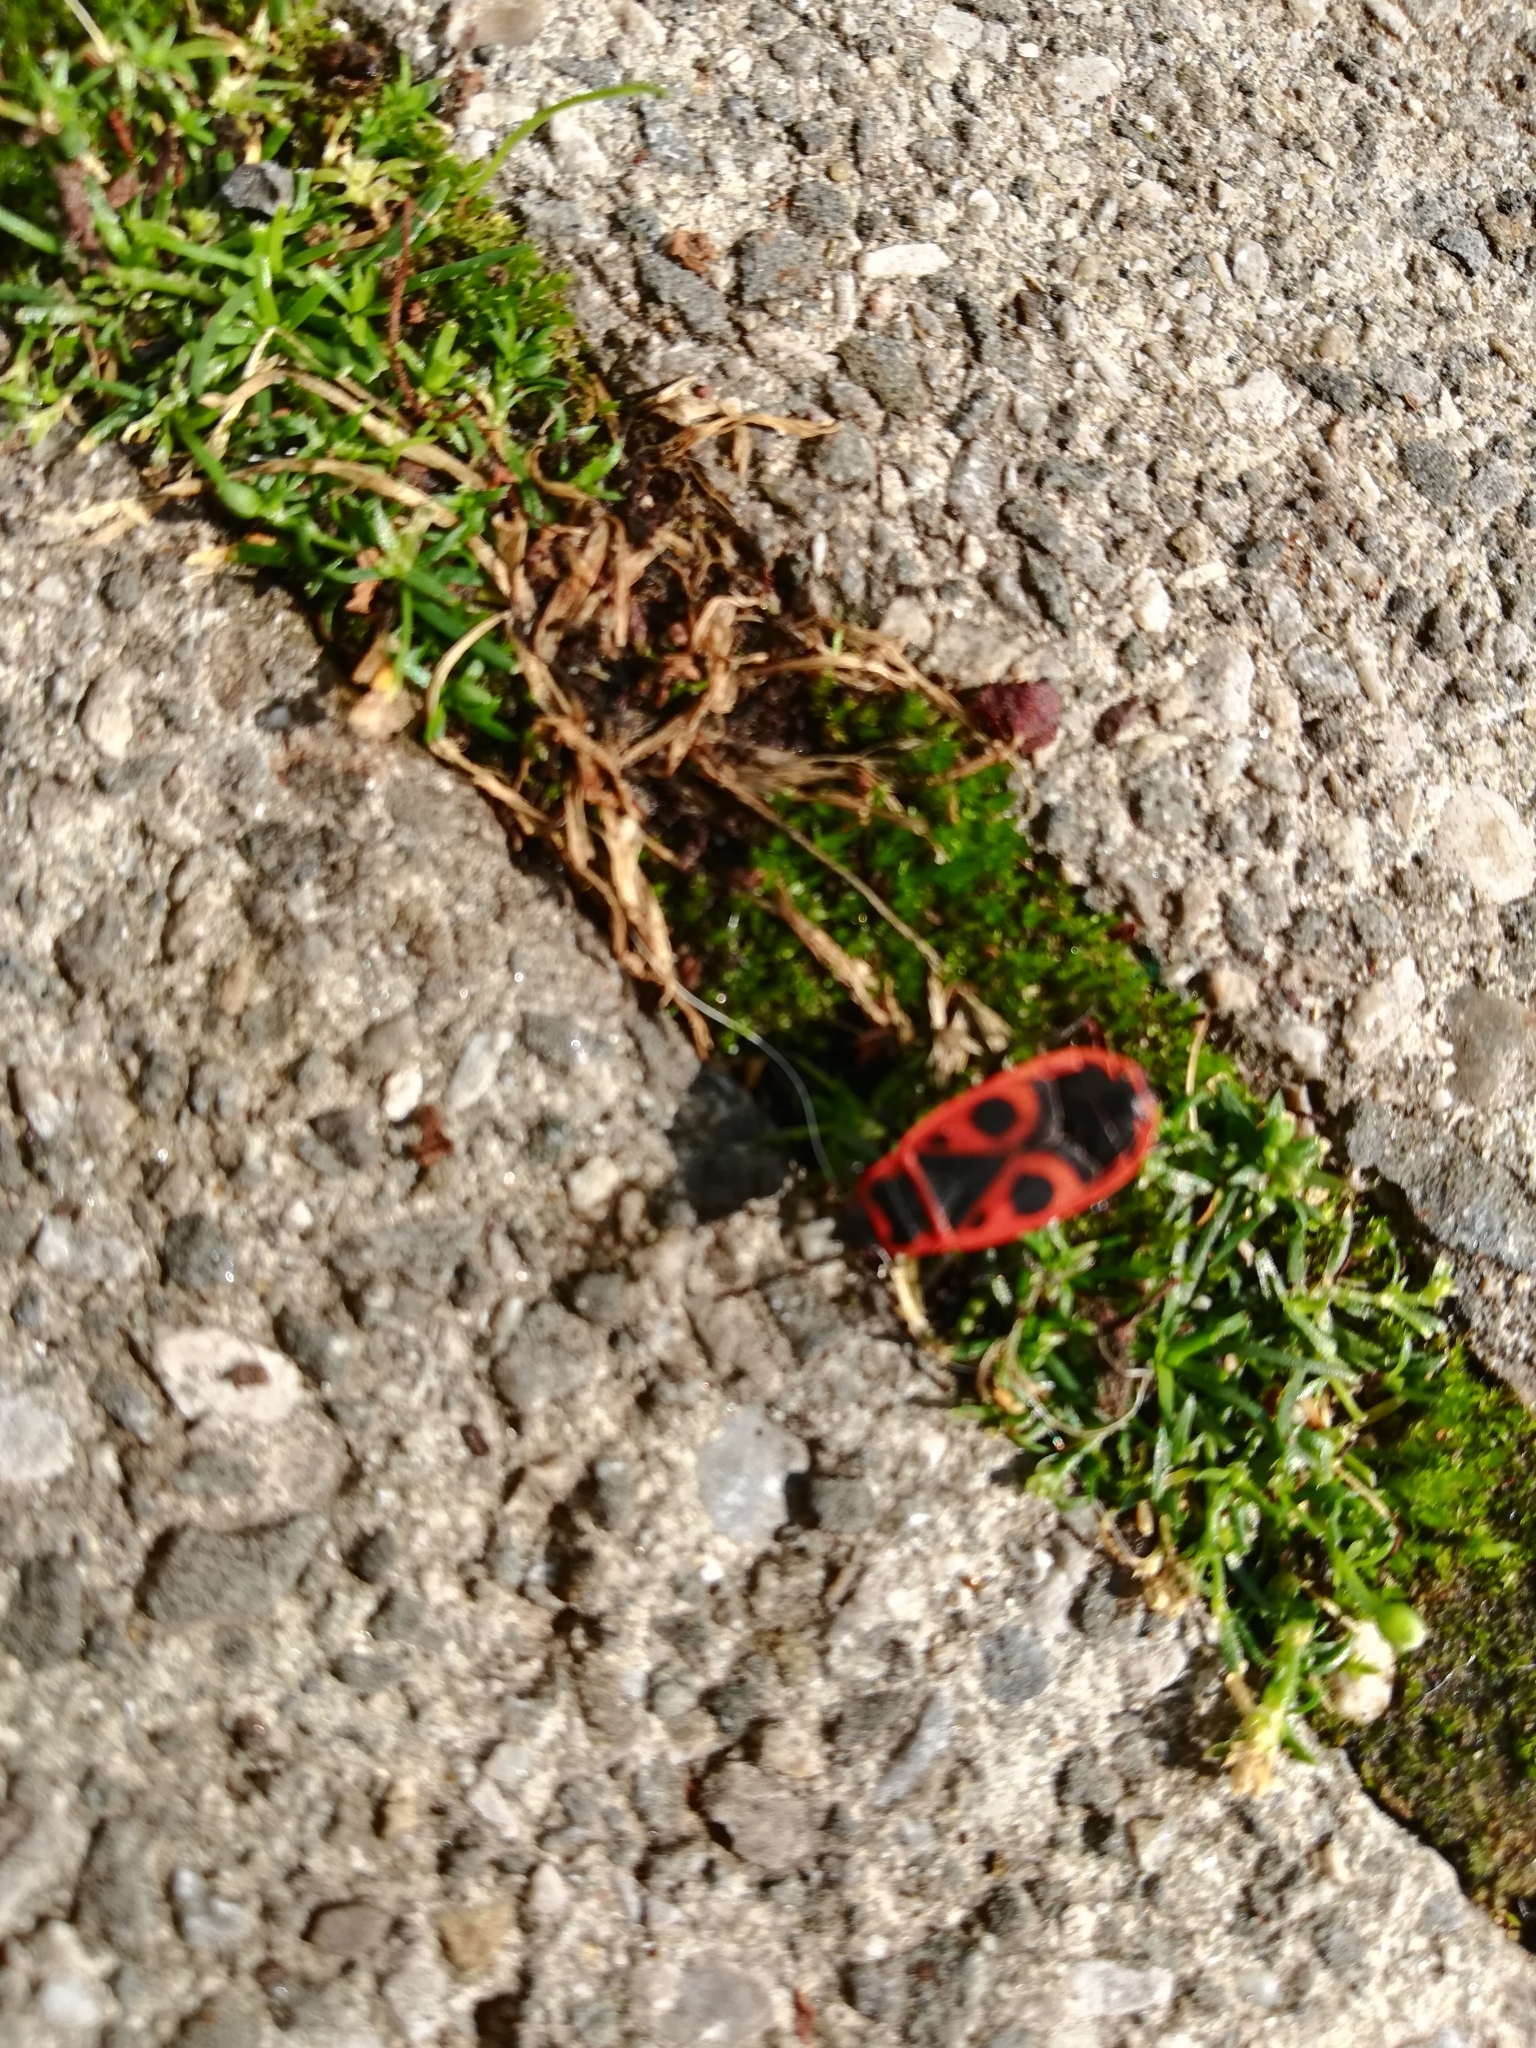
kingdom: Animalia
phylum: Arthropoda
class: Insecta
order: Hemiptera
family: Pyrrhocoridae
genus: Pyrrhocoris
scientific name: Pyrrhocoris apterus
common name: Firebug
